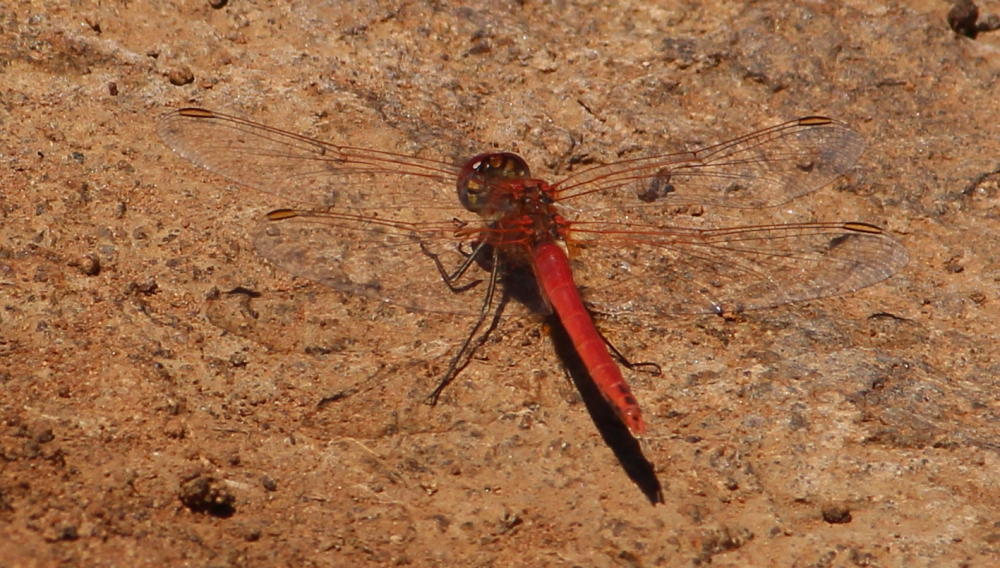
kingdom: Animalia
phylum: Arthropoda
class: Insecta
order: Odonata
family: Libellulidae
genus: Sympetrum
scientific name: Sympetrum fonscolombii
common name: Red-veined darter
